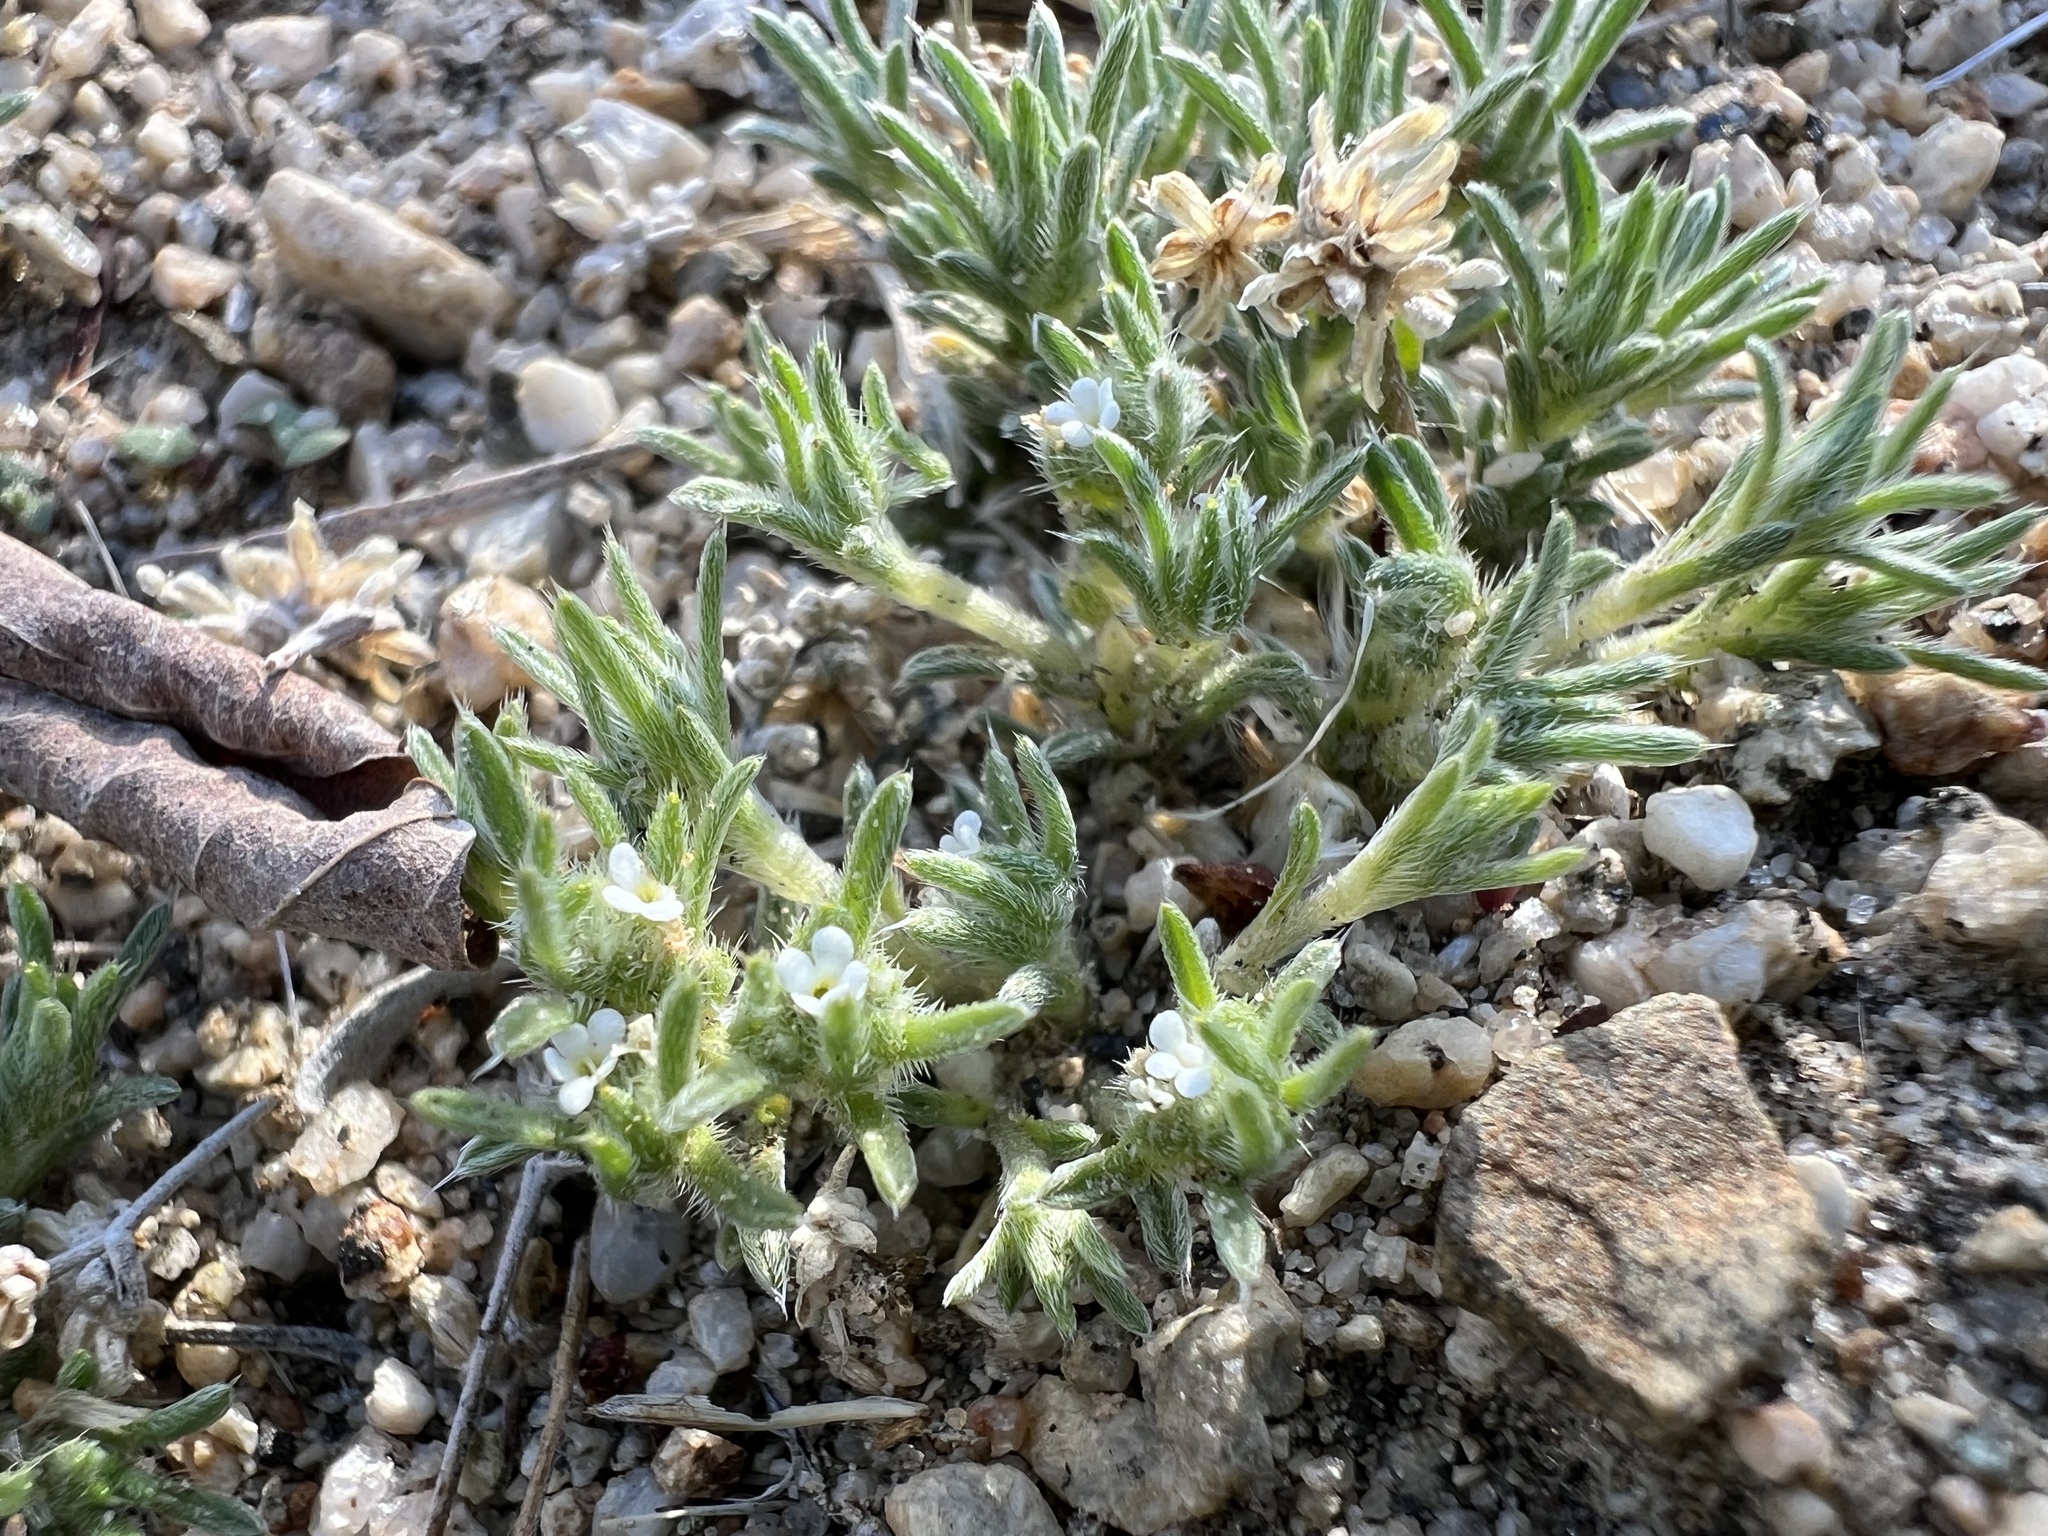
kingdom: Plantae
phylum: Tracheophyta
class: Magnoliopsida
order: Boraginales
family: Boraginaceae
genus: Greeneocharis
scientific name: Greeneocharis circumscissa
